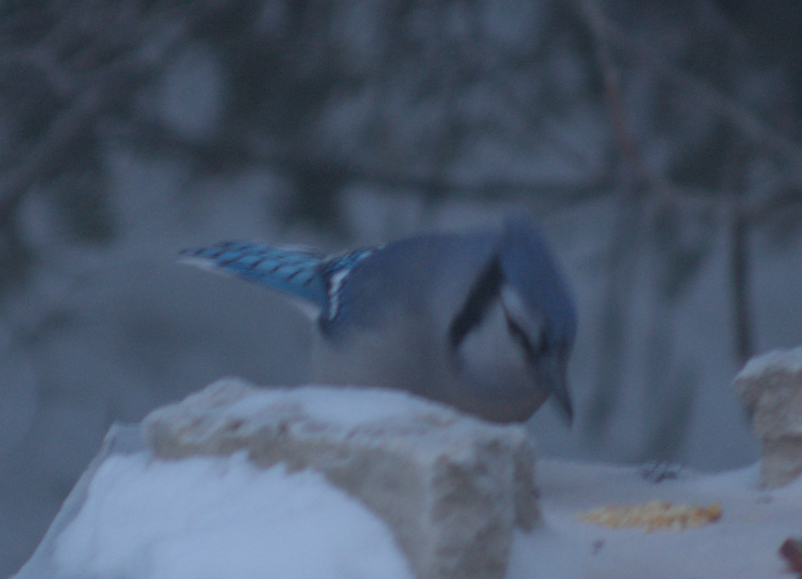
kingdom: Animalia
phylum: Chordata
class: Aves
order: Passeriformes
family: Corvidae
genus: Cyanocitta
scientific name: Cyanocitta cristata
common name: Blue jay
